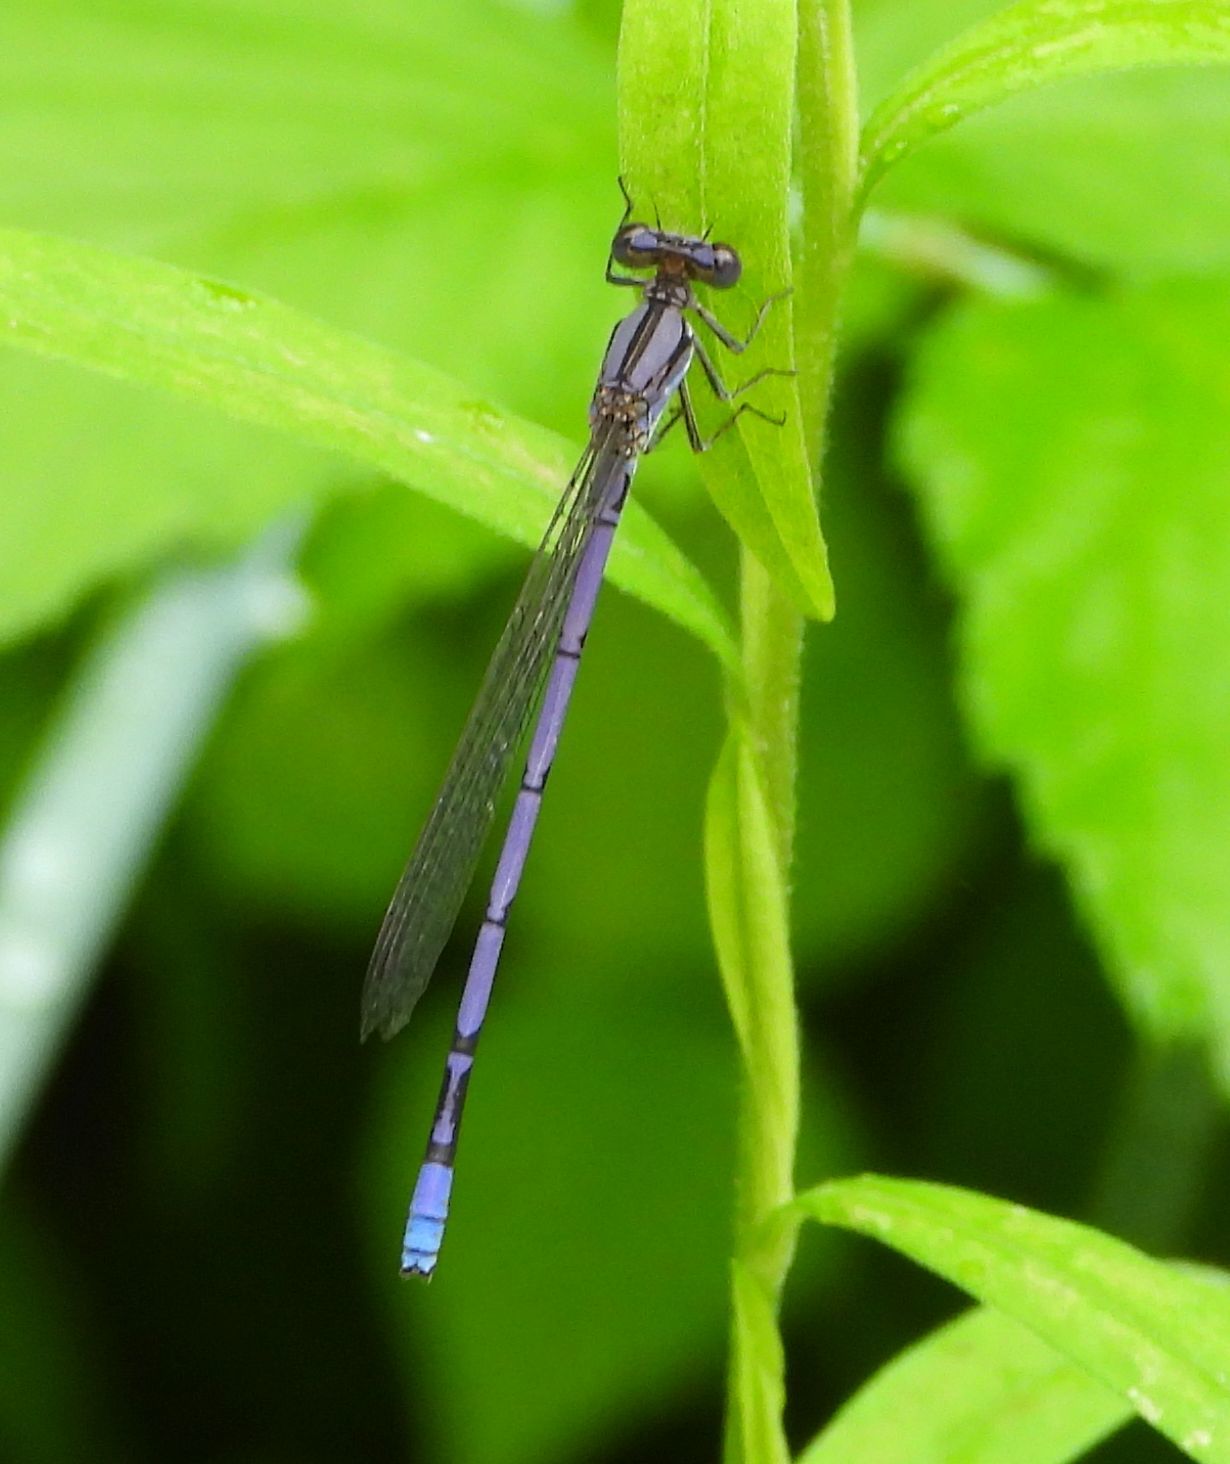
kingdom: Animalia
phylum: Arthropoda
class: Insecta
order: Odonata
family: Coenagrionidae
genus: Argia
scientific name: Argia fumipennis
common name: Variable dancer
